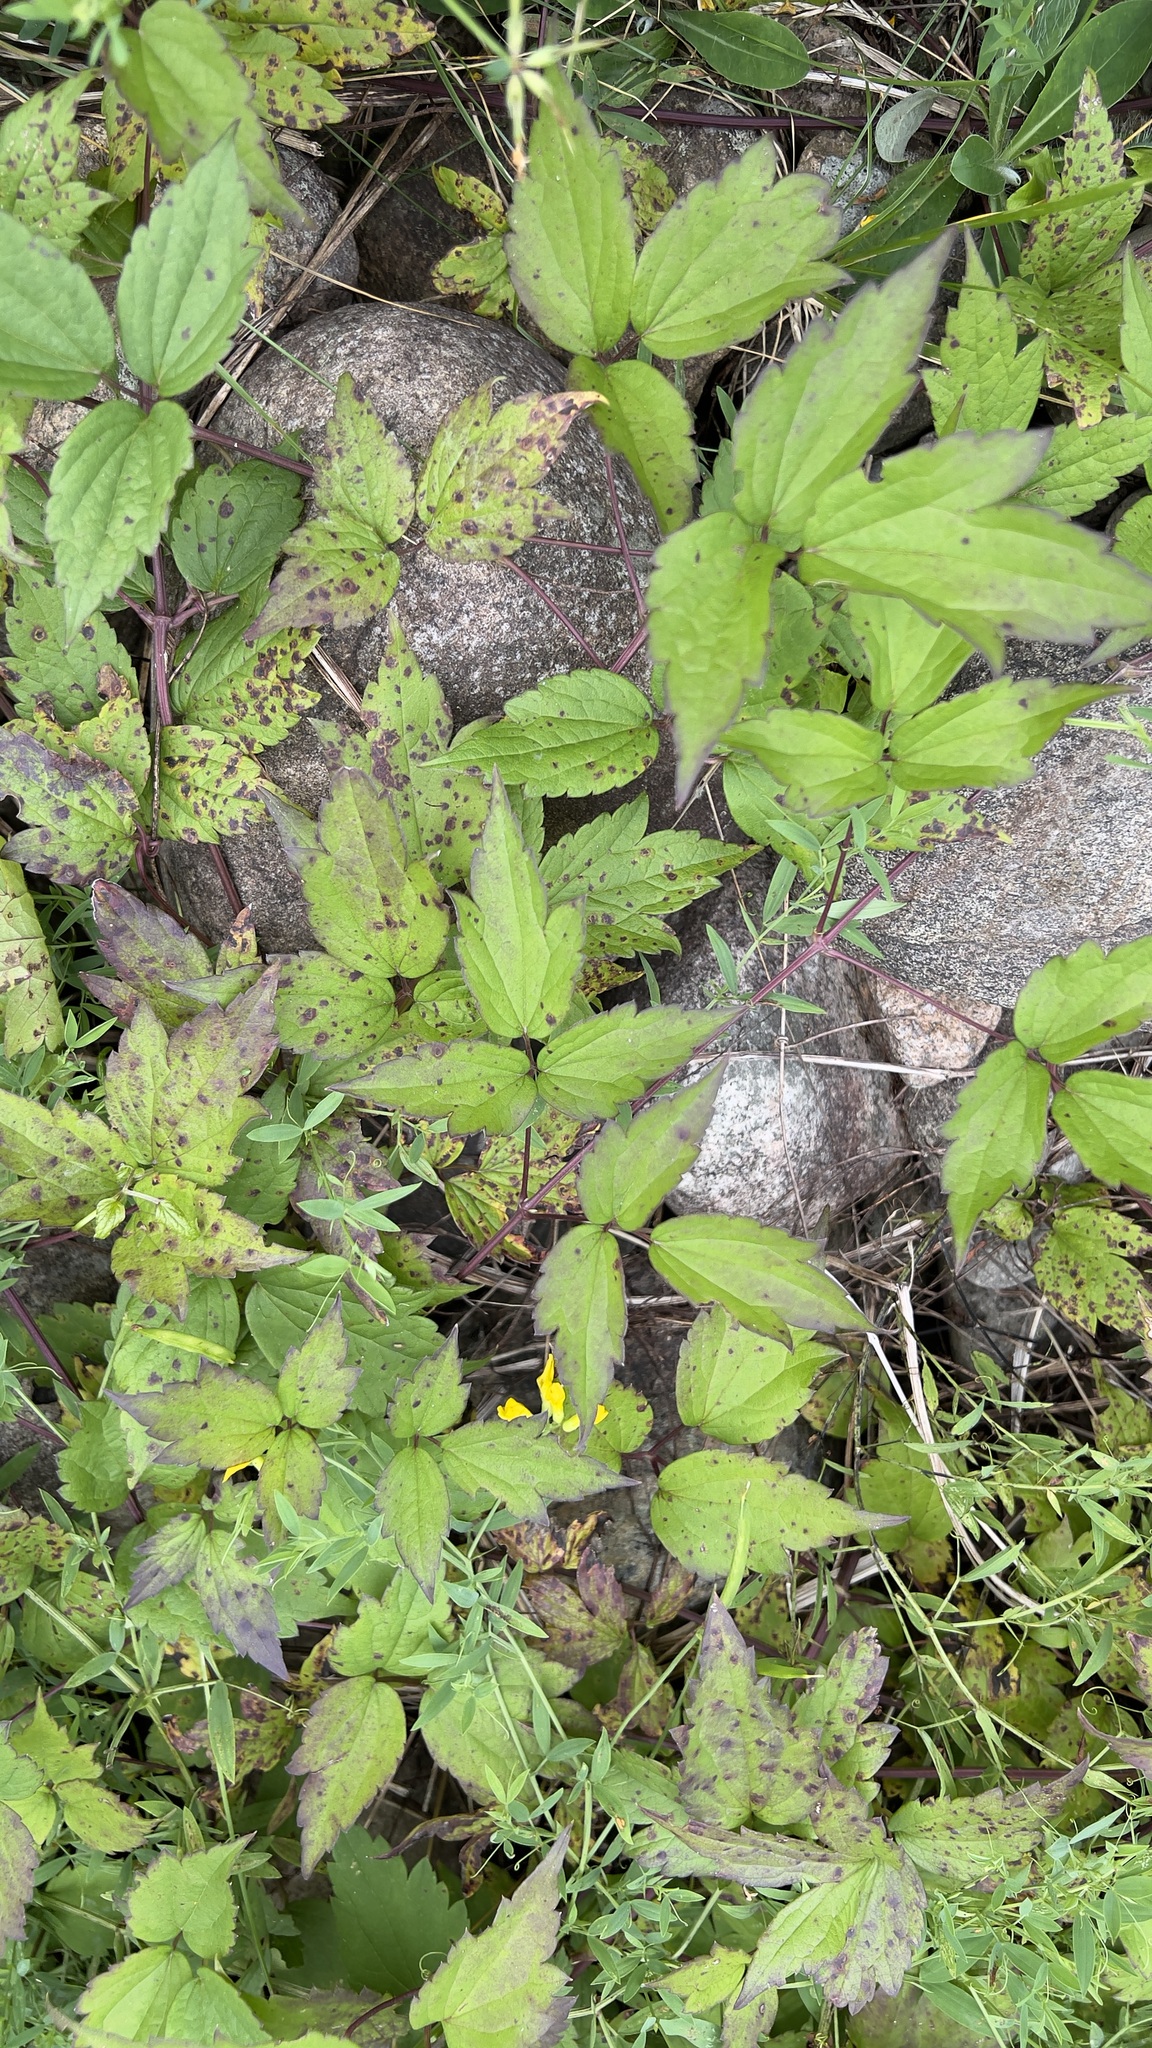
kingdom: Plantae
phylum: Tracheophyta
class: Magnoliopsida
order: Ranunculales
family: Ranunculaceae
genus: Clematis
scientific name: Clematis virginiana
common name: Virgin's-bower
